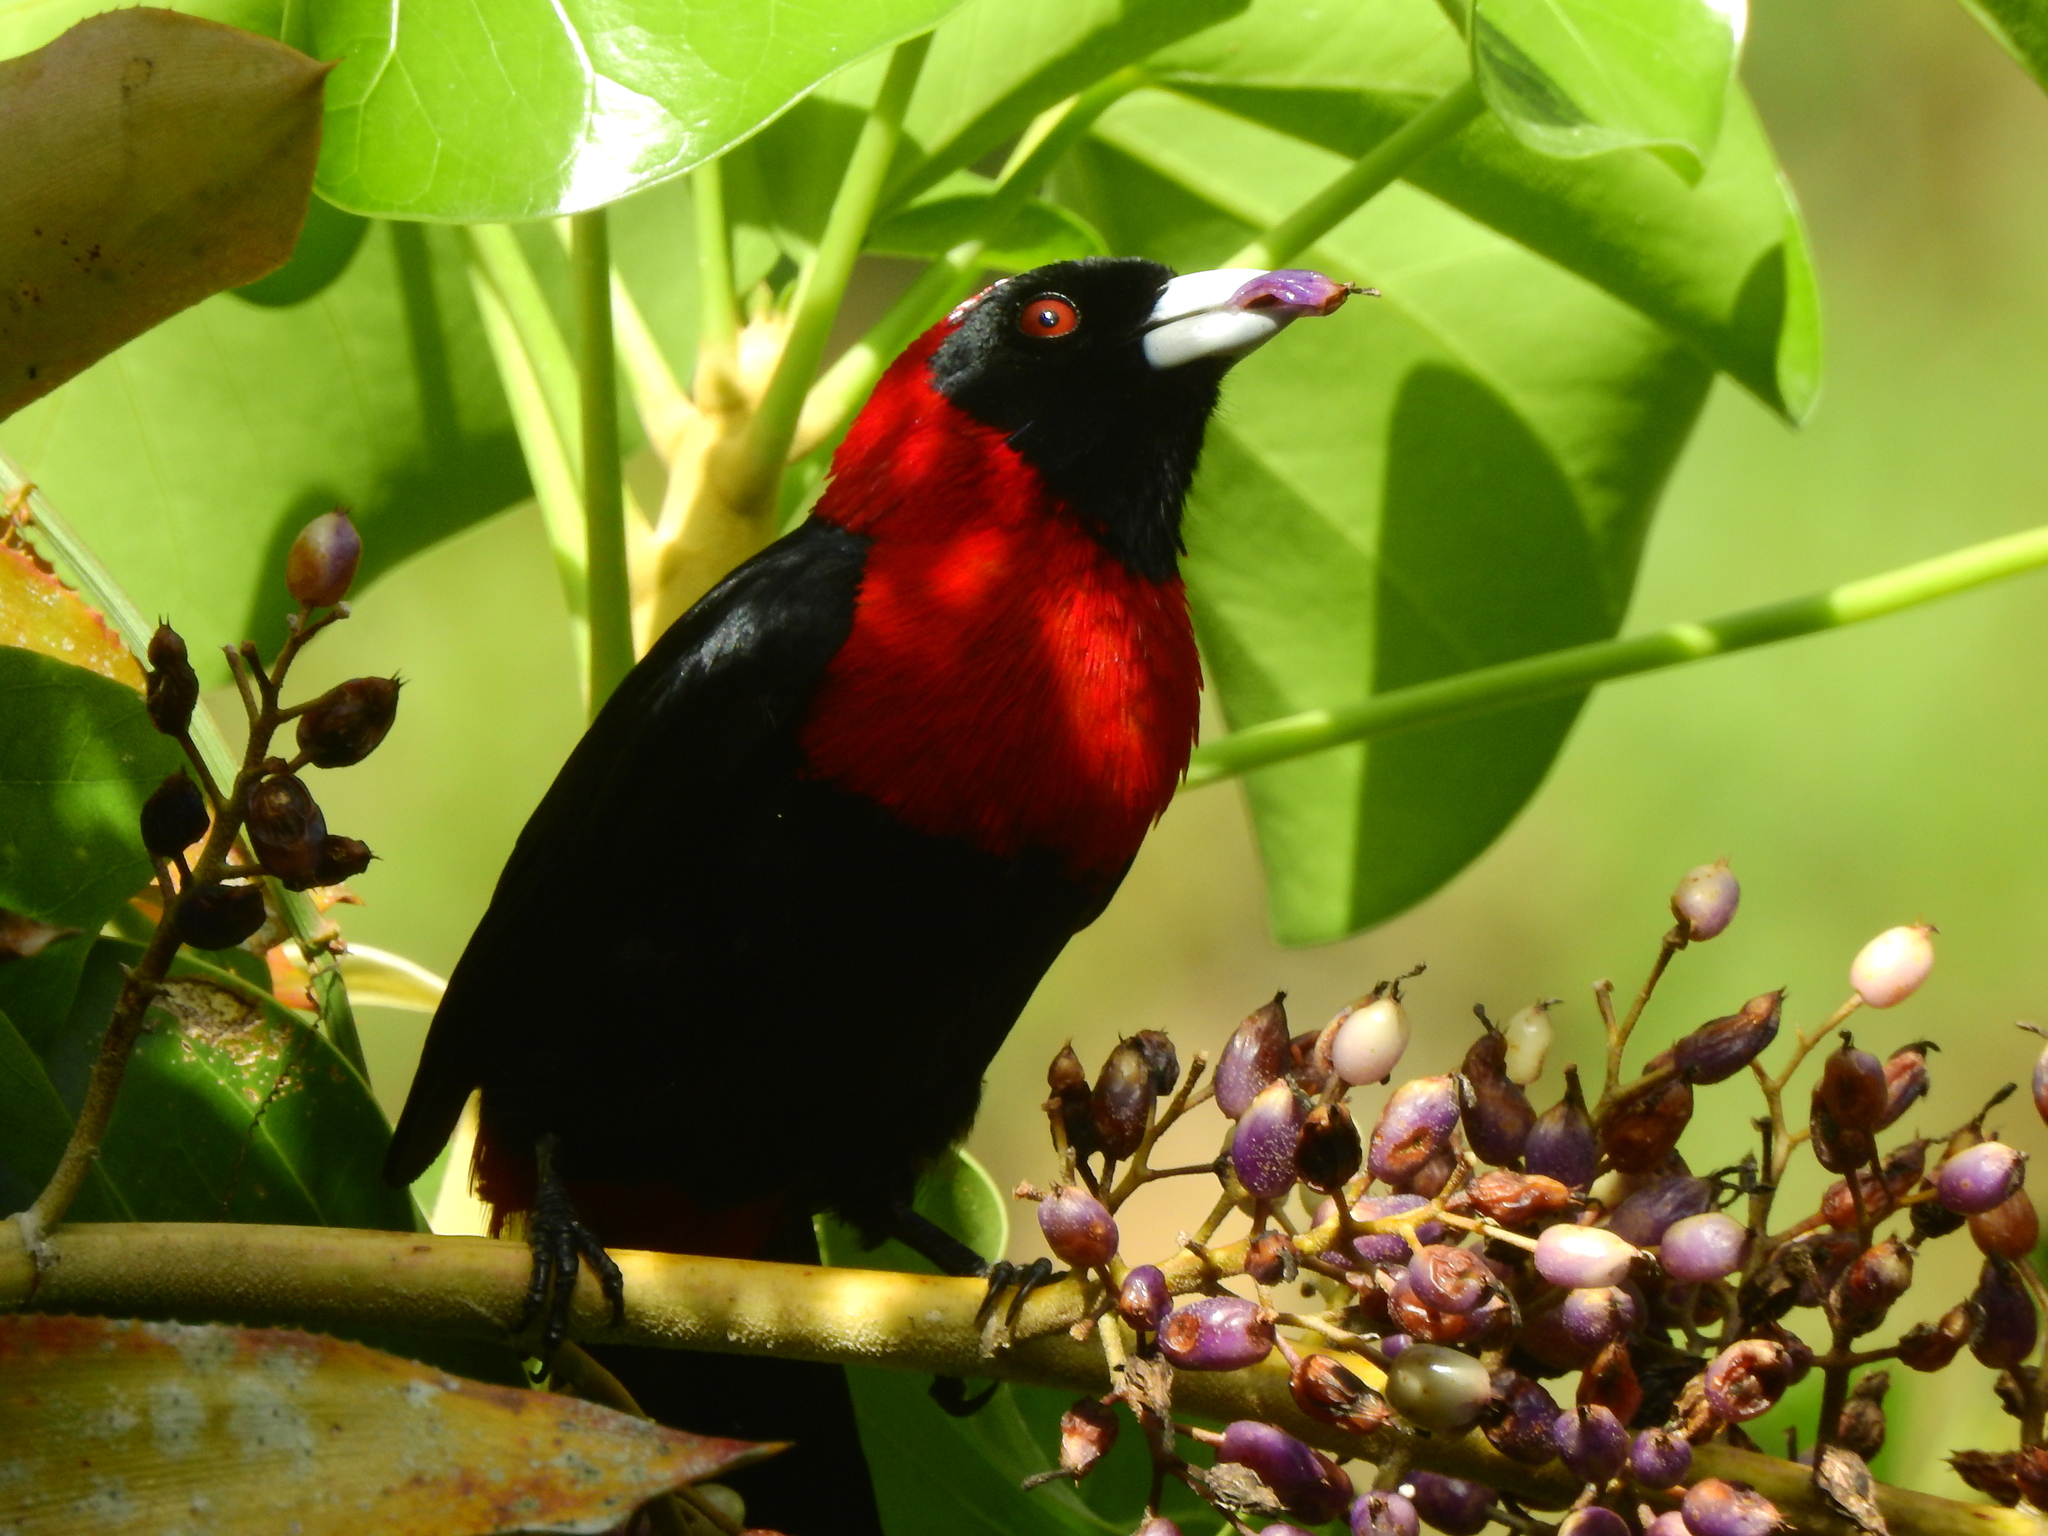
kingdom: Animalia
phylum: Chordata
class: Aves
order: Passeriformes
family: Thraupidae
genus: Ramphocelus
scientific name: Ramphocelus sanguinolentus
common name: Crimson-collared tanager
